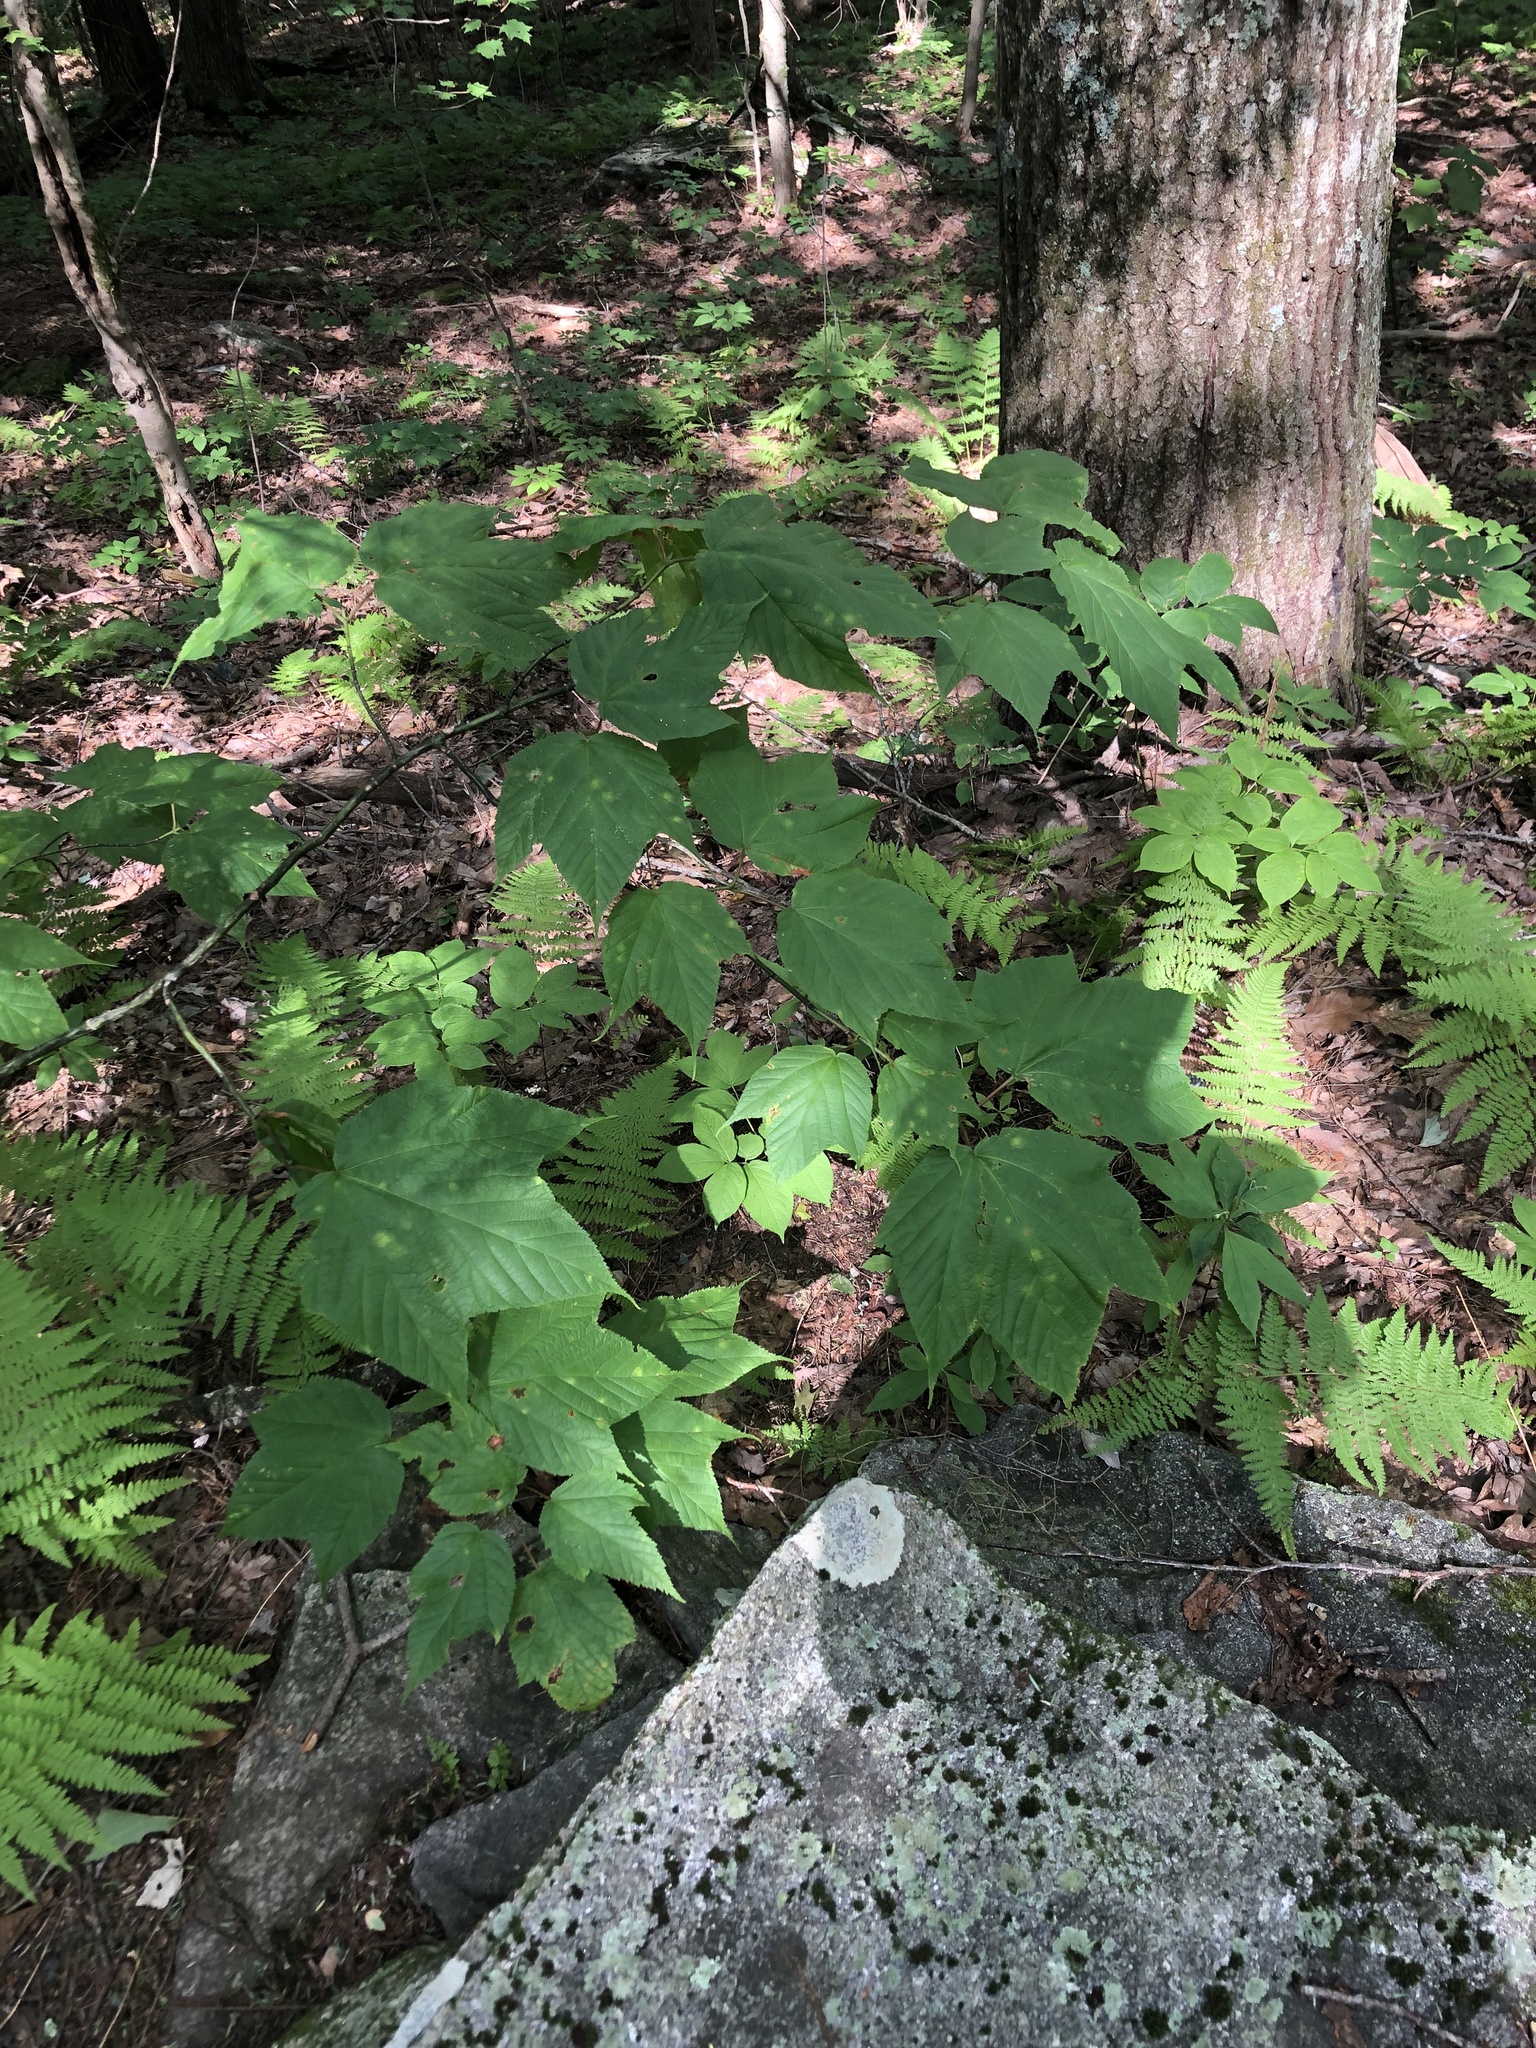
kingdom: Plantae
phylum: Tracheophyta
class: Magnoliopsida
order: Sapindales
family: Sapindaceae
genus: Acer
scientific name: Acer pensylvanicum
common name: Moosewood
